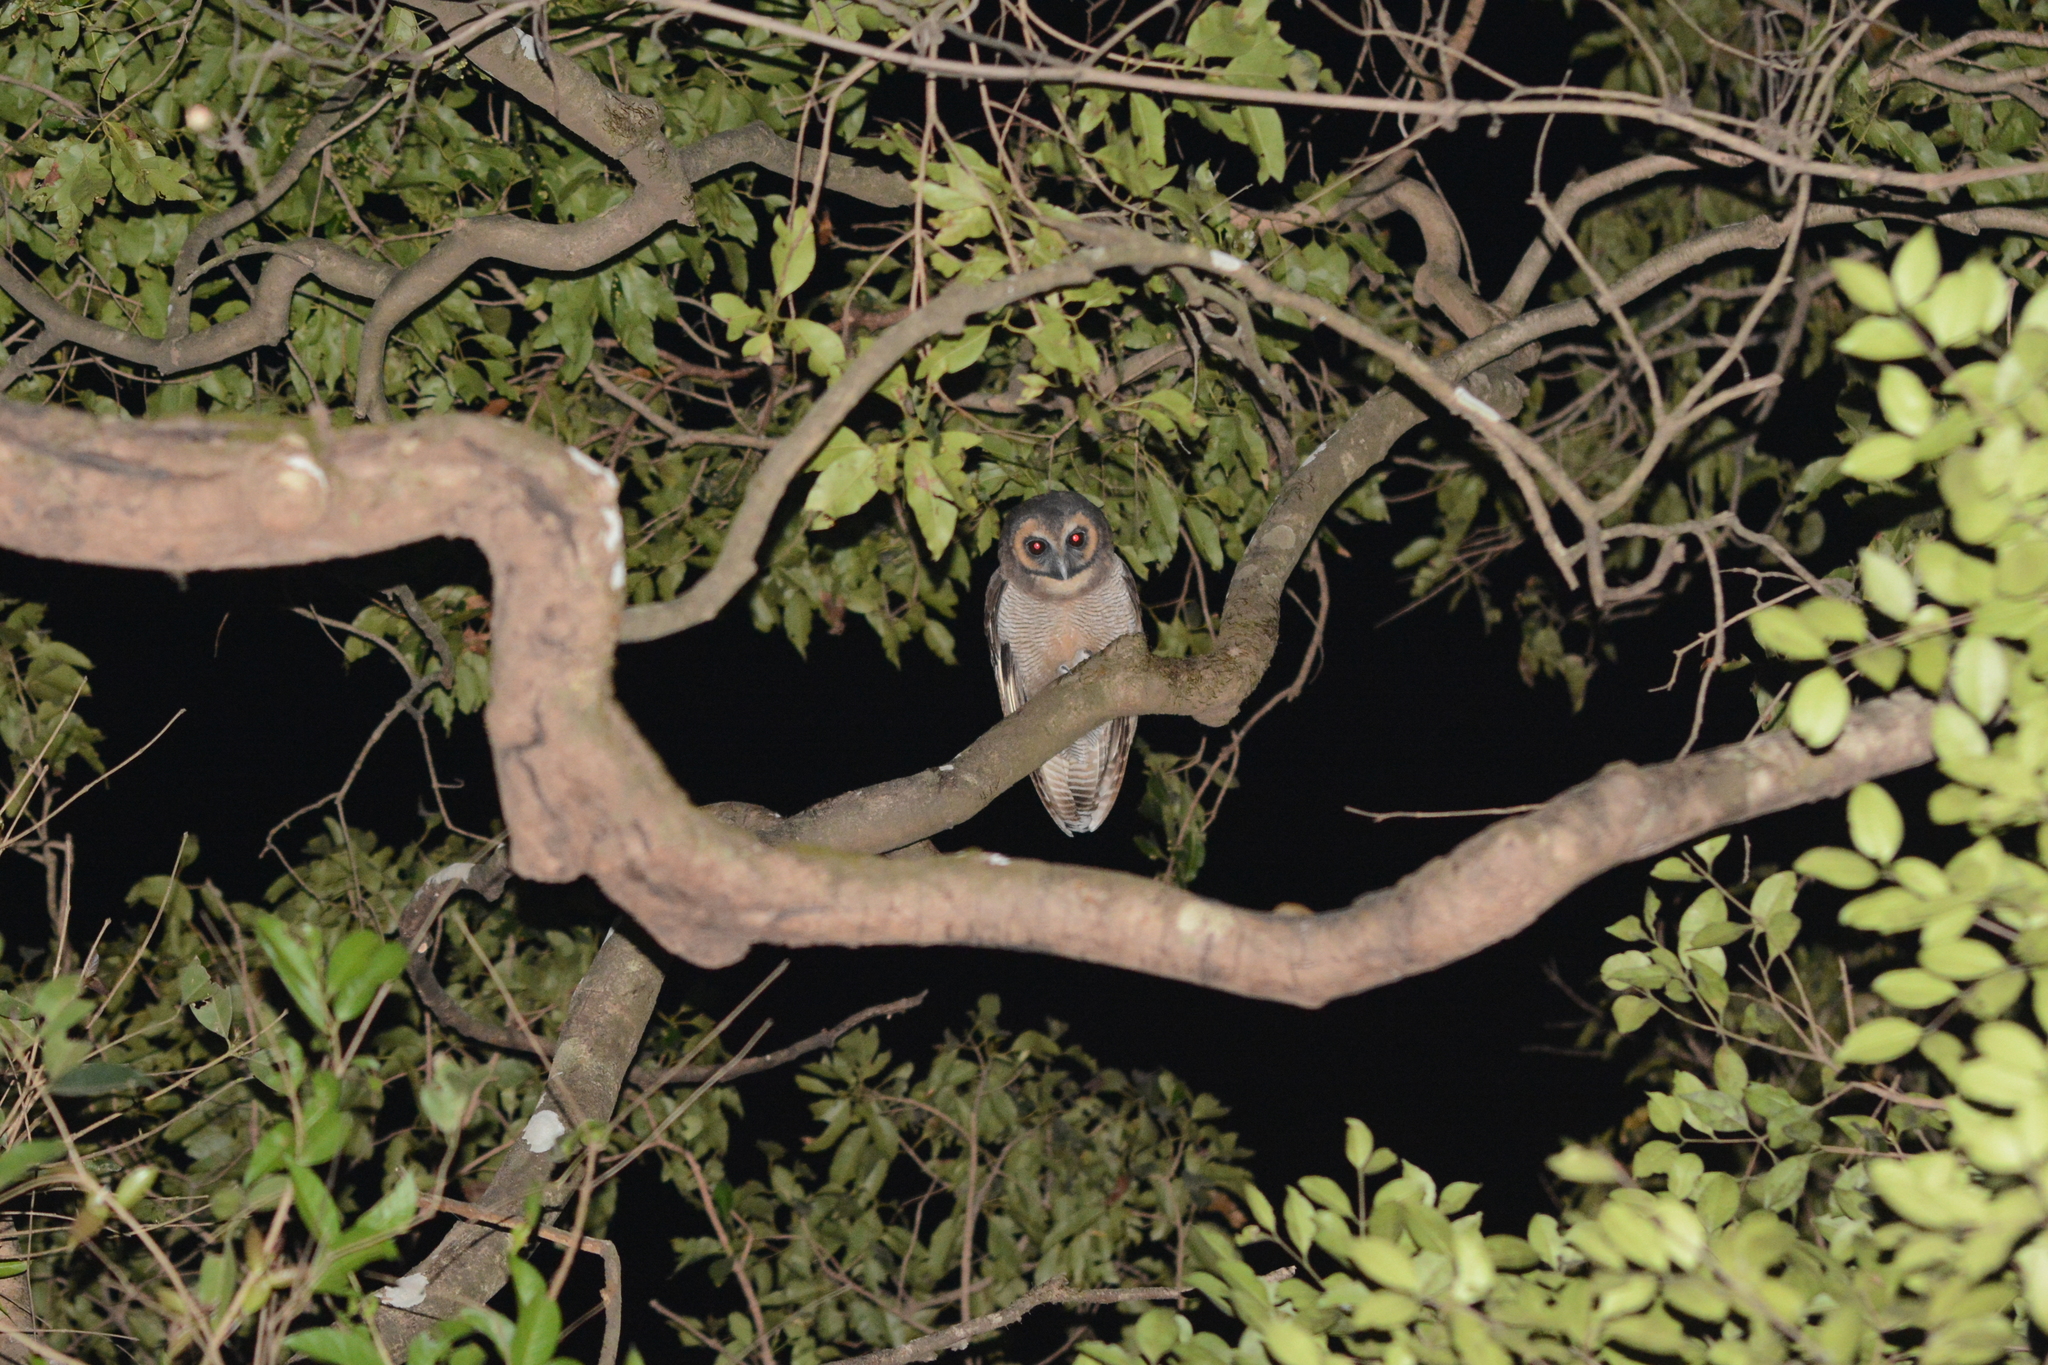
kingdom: Animalia
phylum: Chordata
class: Aves
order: Strigiformes
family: Strigidae
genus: Strix
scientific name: Strix leptogrammica
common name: Brown wood owl
